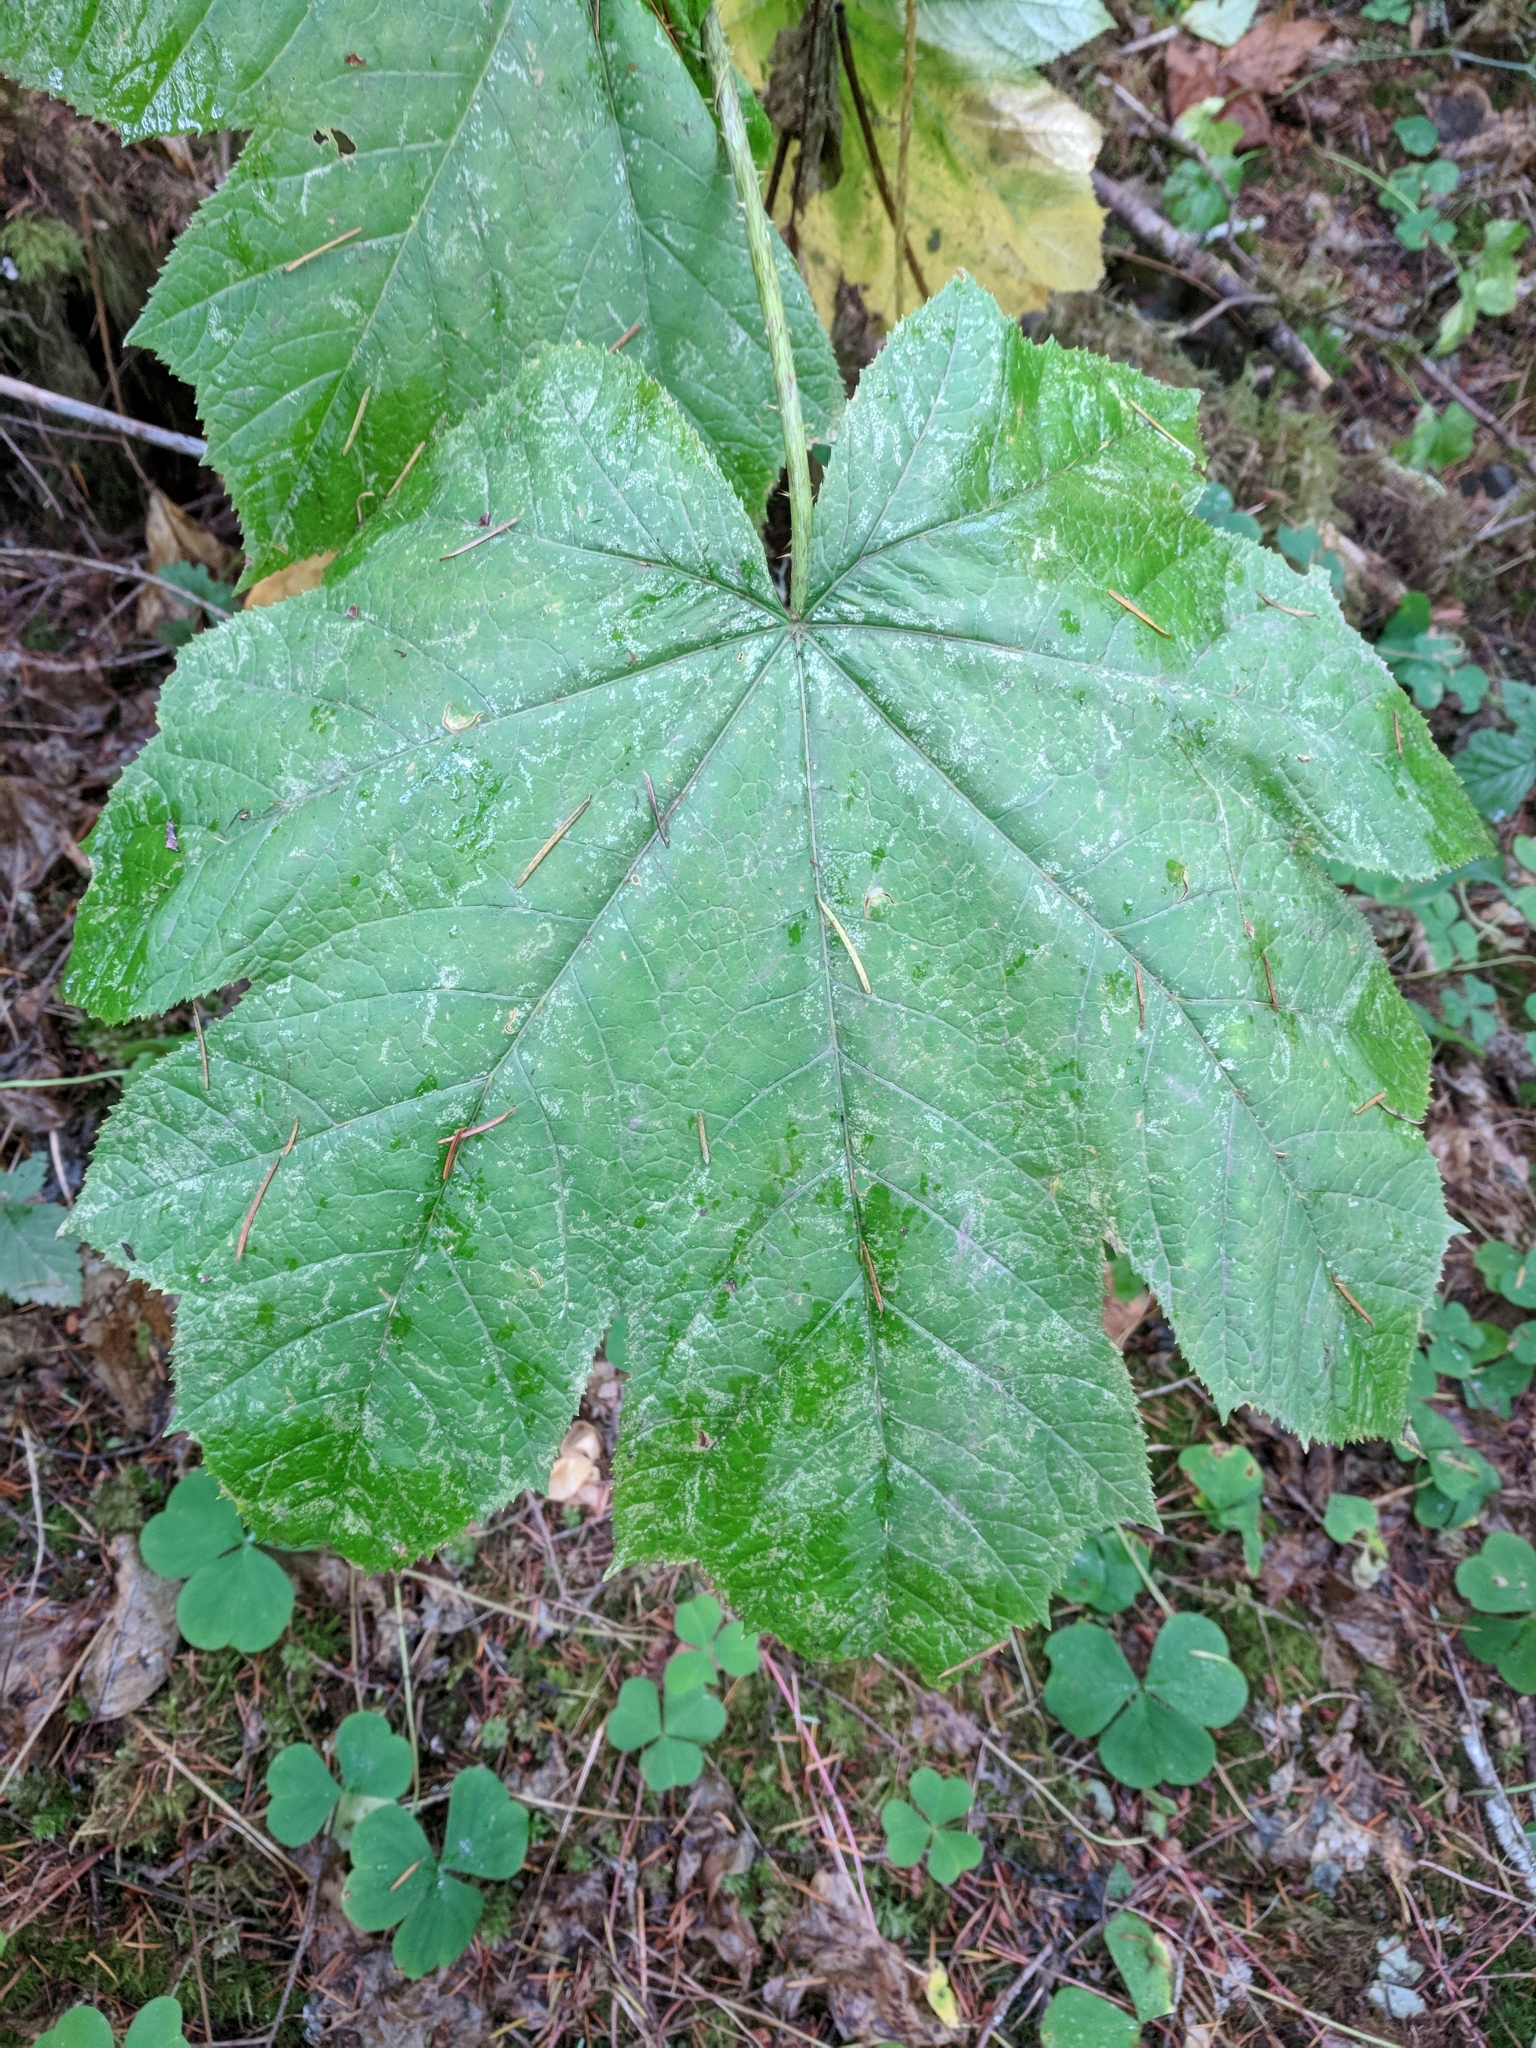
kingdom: Plantae
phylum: Tracheophyta
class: Magnoliopsida
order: Apiales
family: Araliaceae
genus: Oplopanax
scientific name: Oplopanax horridus
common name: Devil's walking-stick
